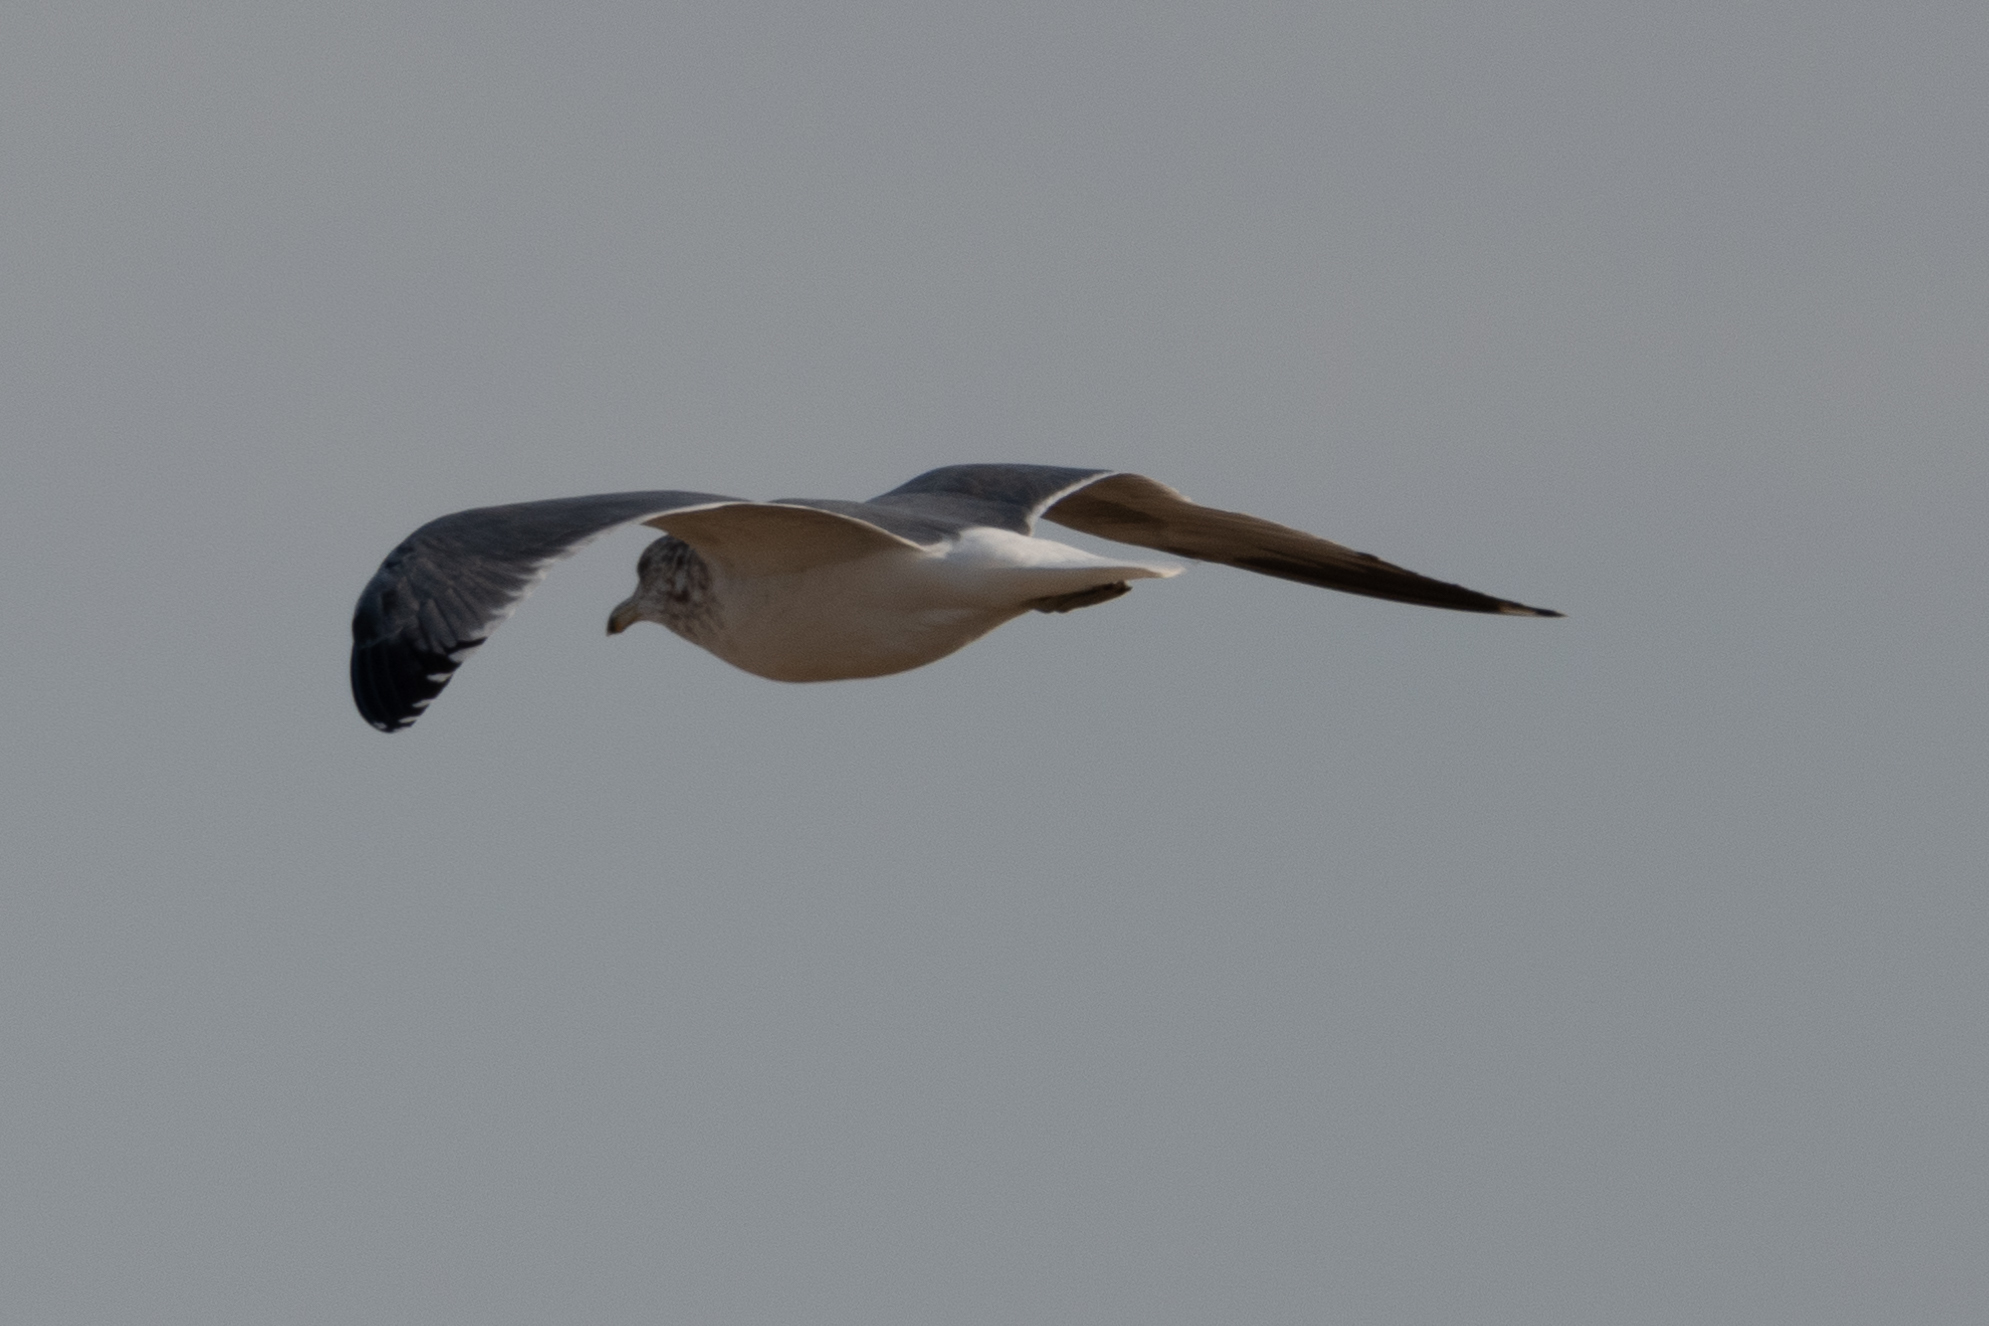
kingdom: Animalia
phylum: Chordata
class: Aves
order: Charadriiformes
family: Laridae
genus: Larus
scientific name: Larus californicus
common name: California gull
